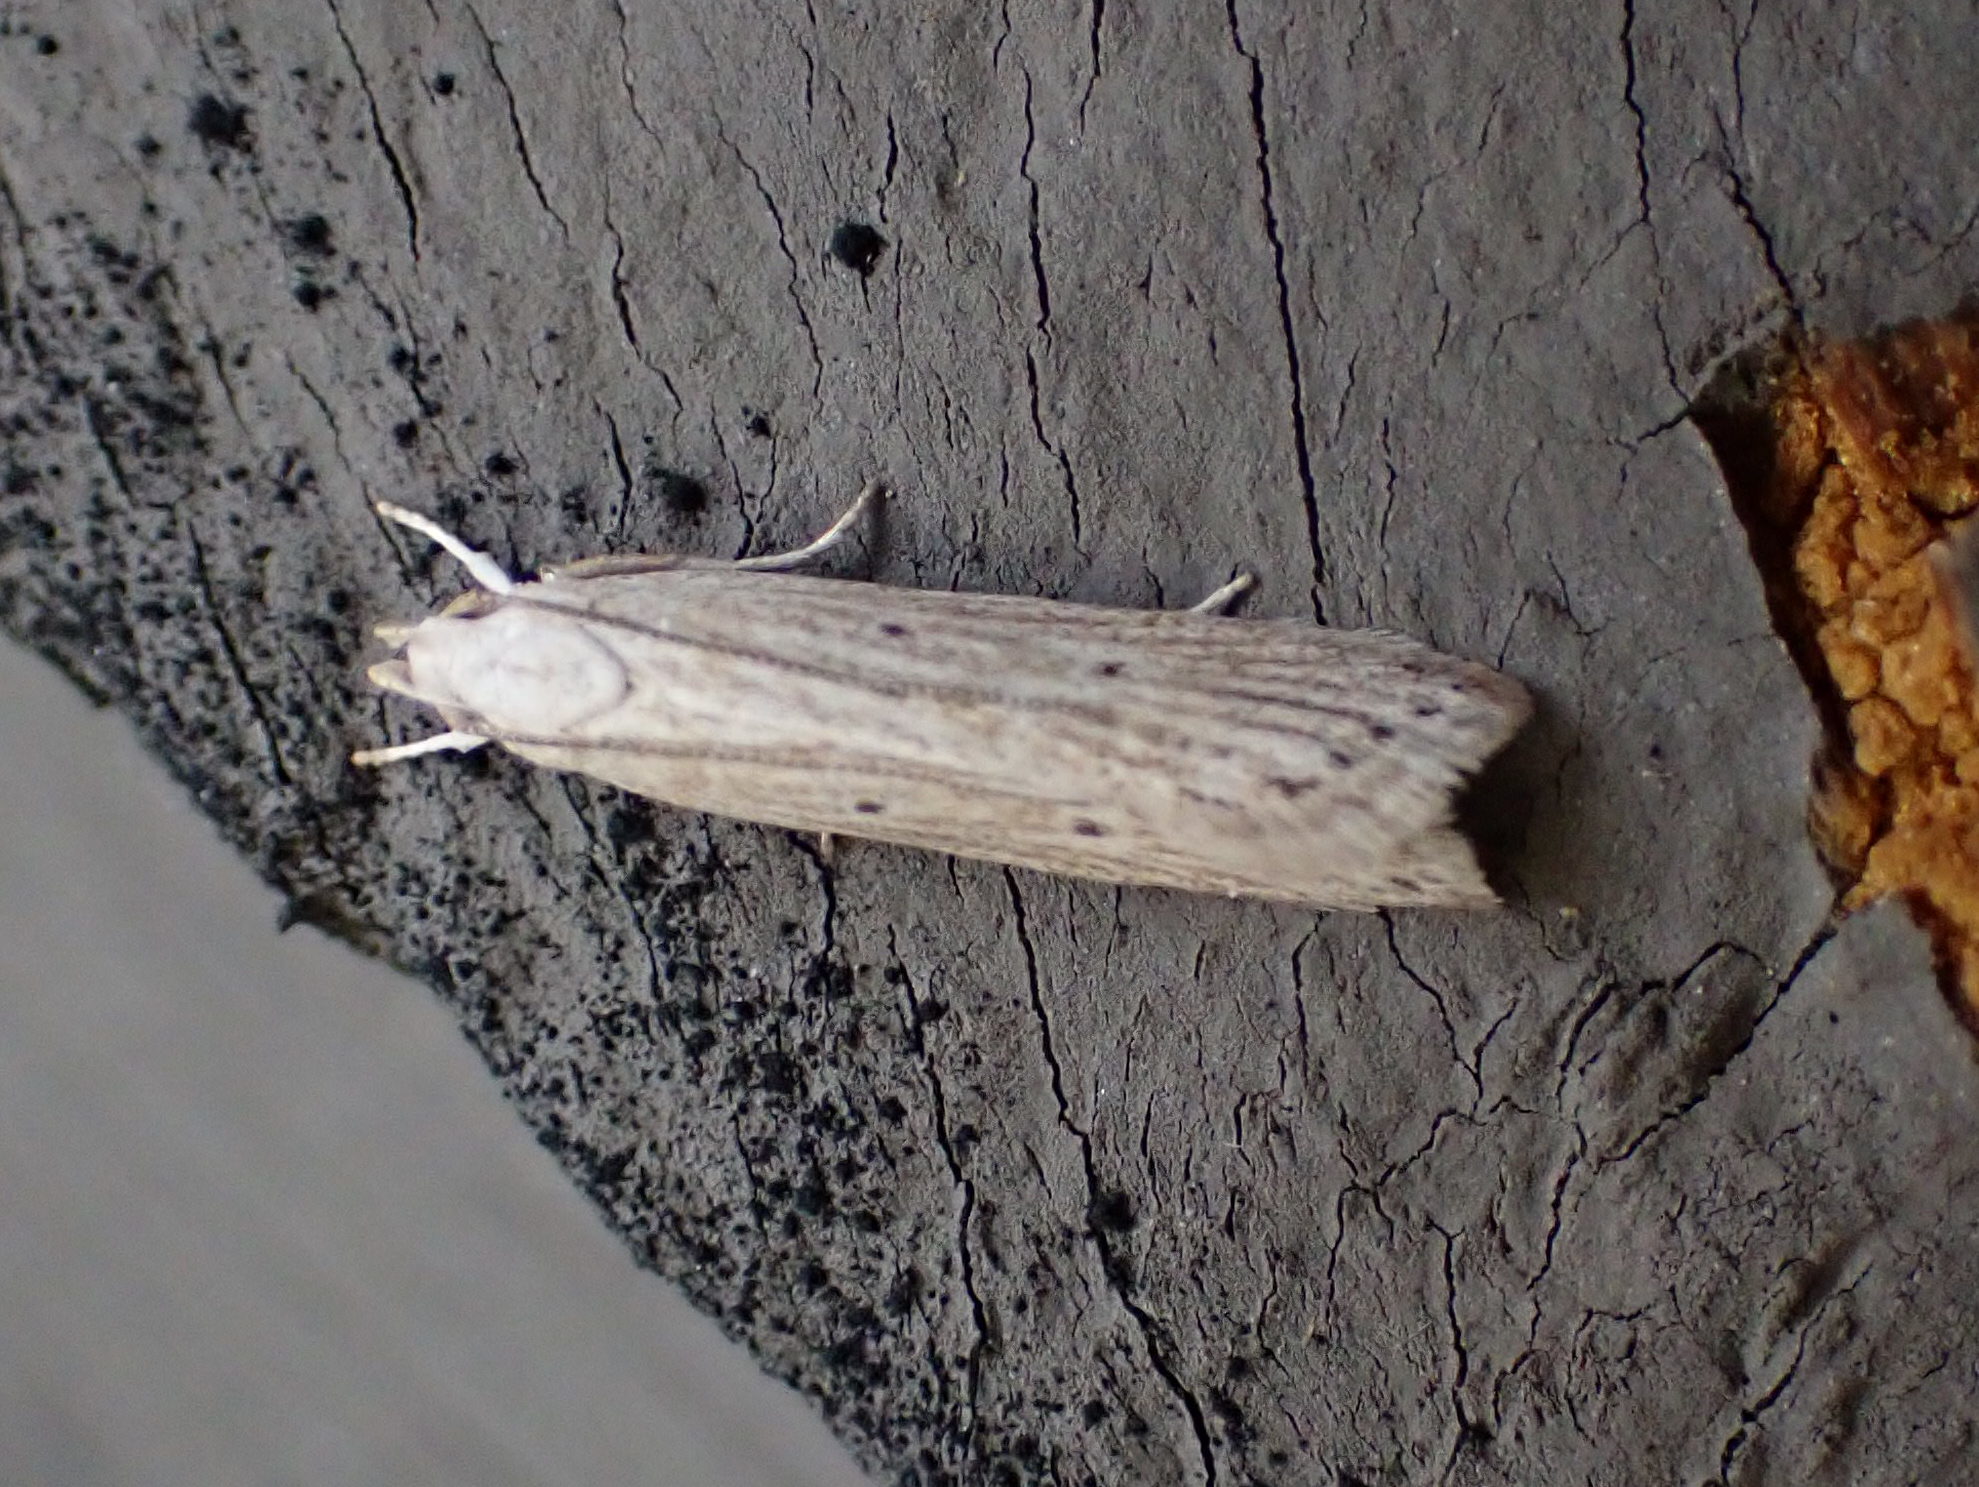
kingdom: Animalia
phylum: Arthropoda
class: Insecta
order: Lepidoptera
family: Gelechiidae
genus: Helcystogramma
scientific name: Helcystogramma fernaldella
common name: Fernald's helcystogramma moth
